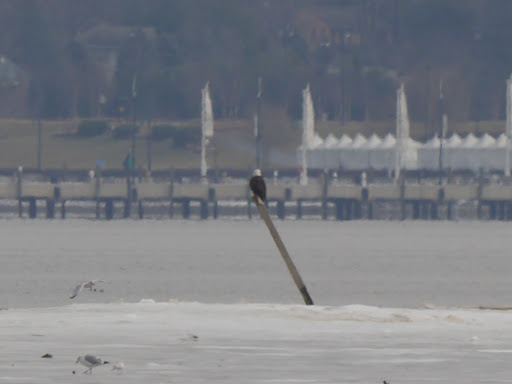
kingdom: Animalia
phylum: Chordata
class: Aves
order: Accipitriformes
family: Accipitridae
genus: Haliaeetus
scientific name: Haliaeetus leucocephalus
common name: Bald eagle
